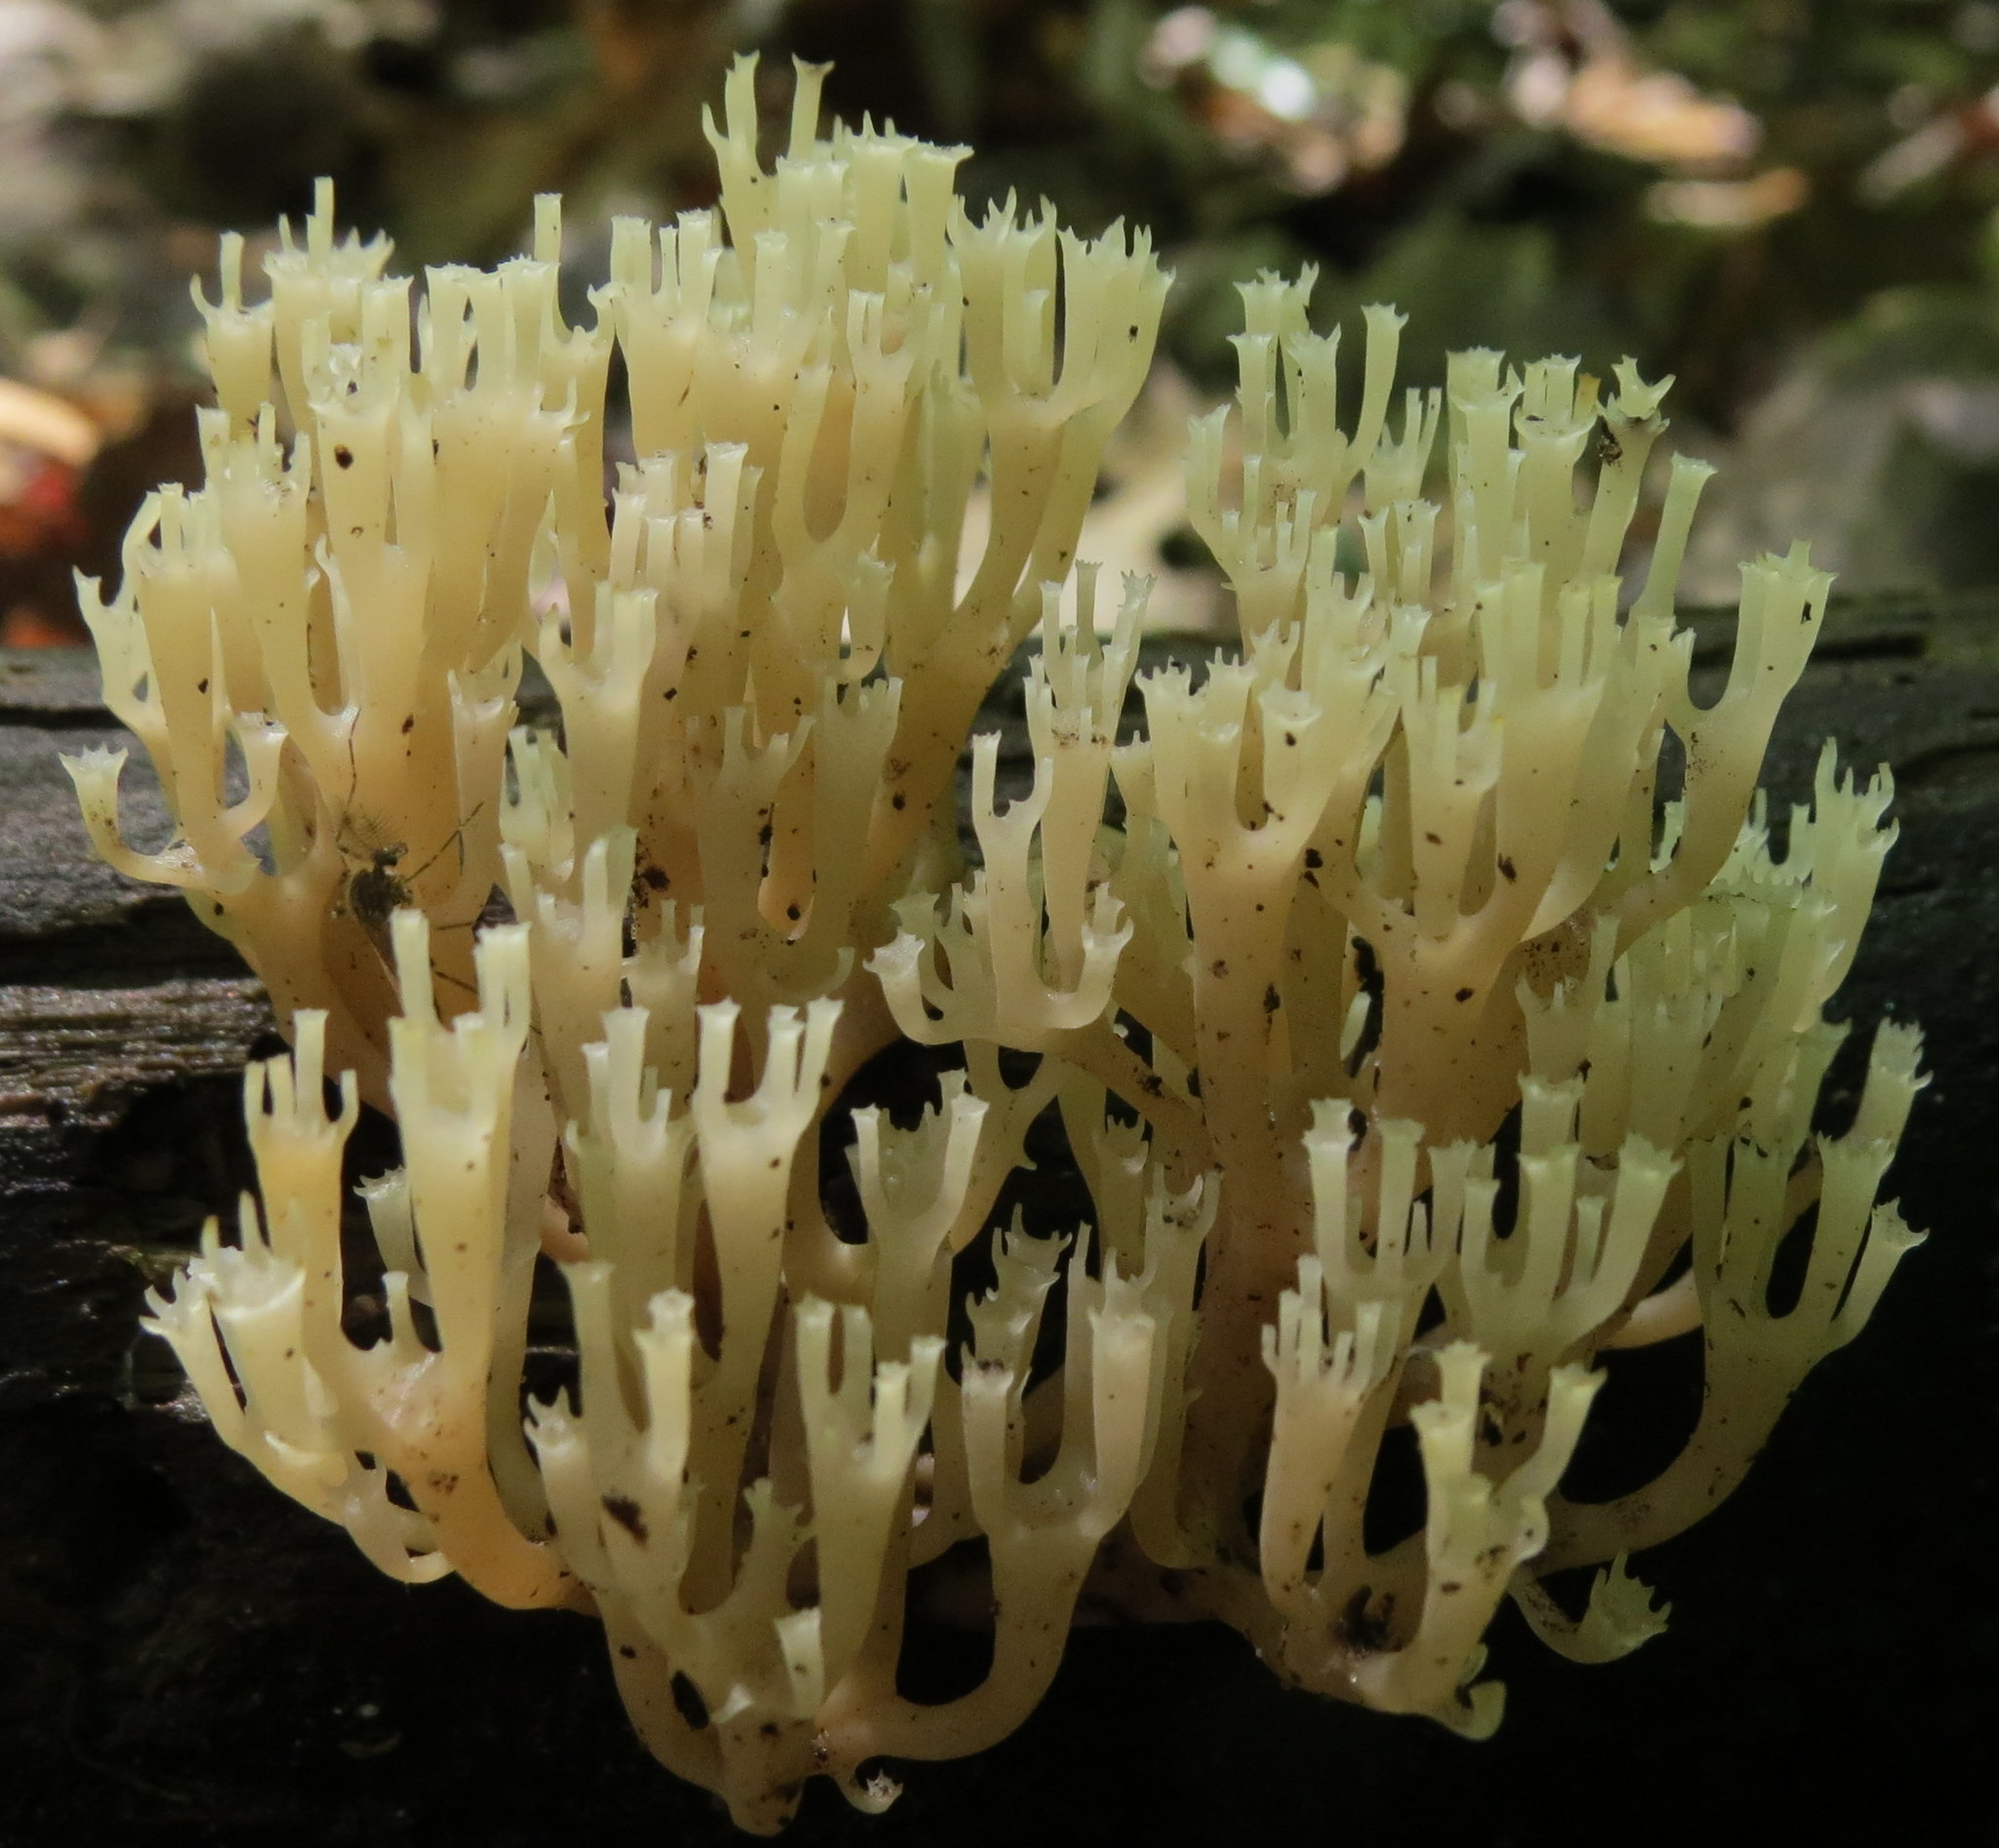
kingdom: Fungi
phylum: Basidiomycota
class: Agaricomycetes
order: Russulales
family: Auriscalpiaceae
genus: Artomyces
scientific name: Artomyces pyxidatus
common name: Crown-tipped coral fungus
